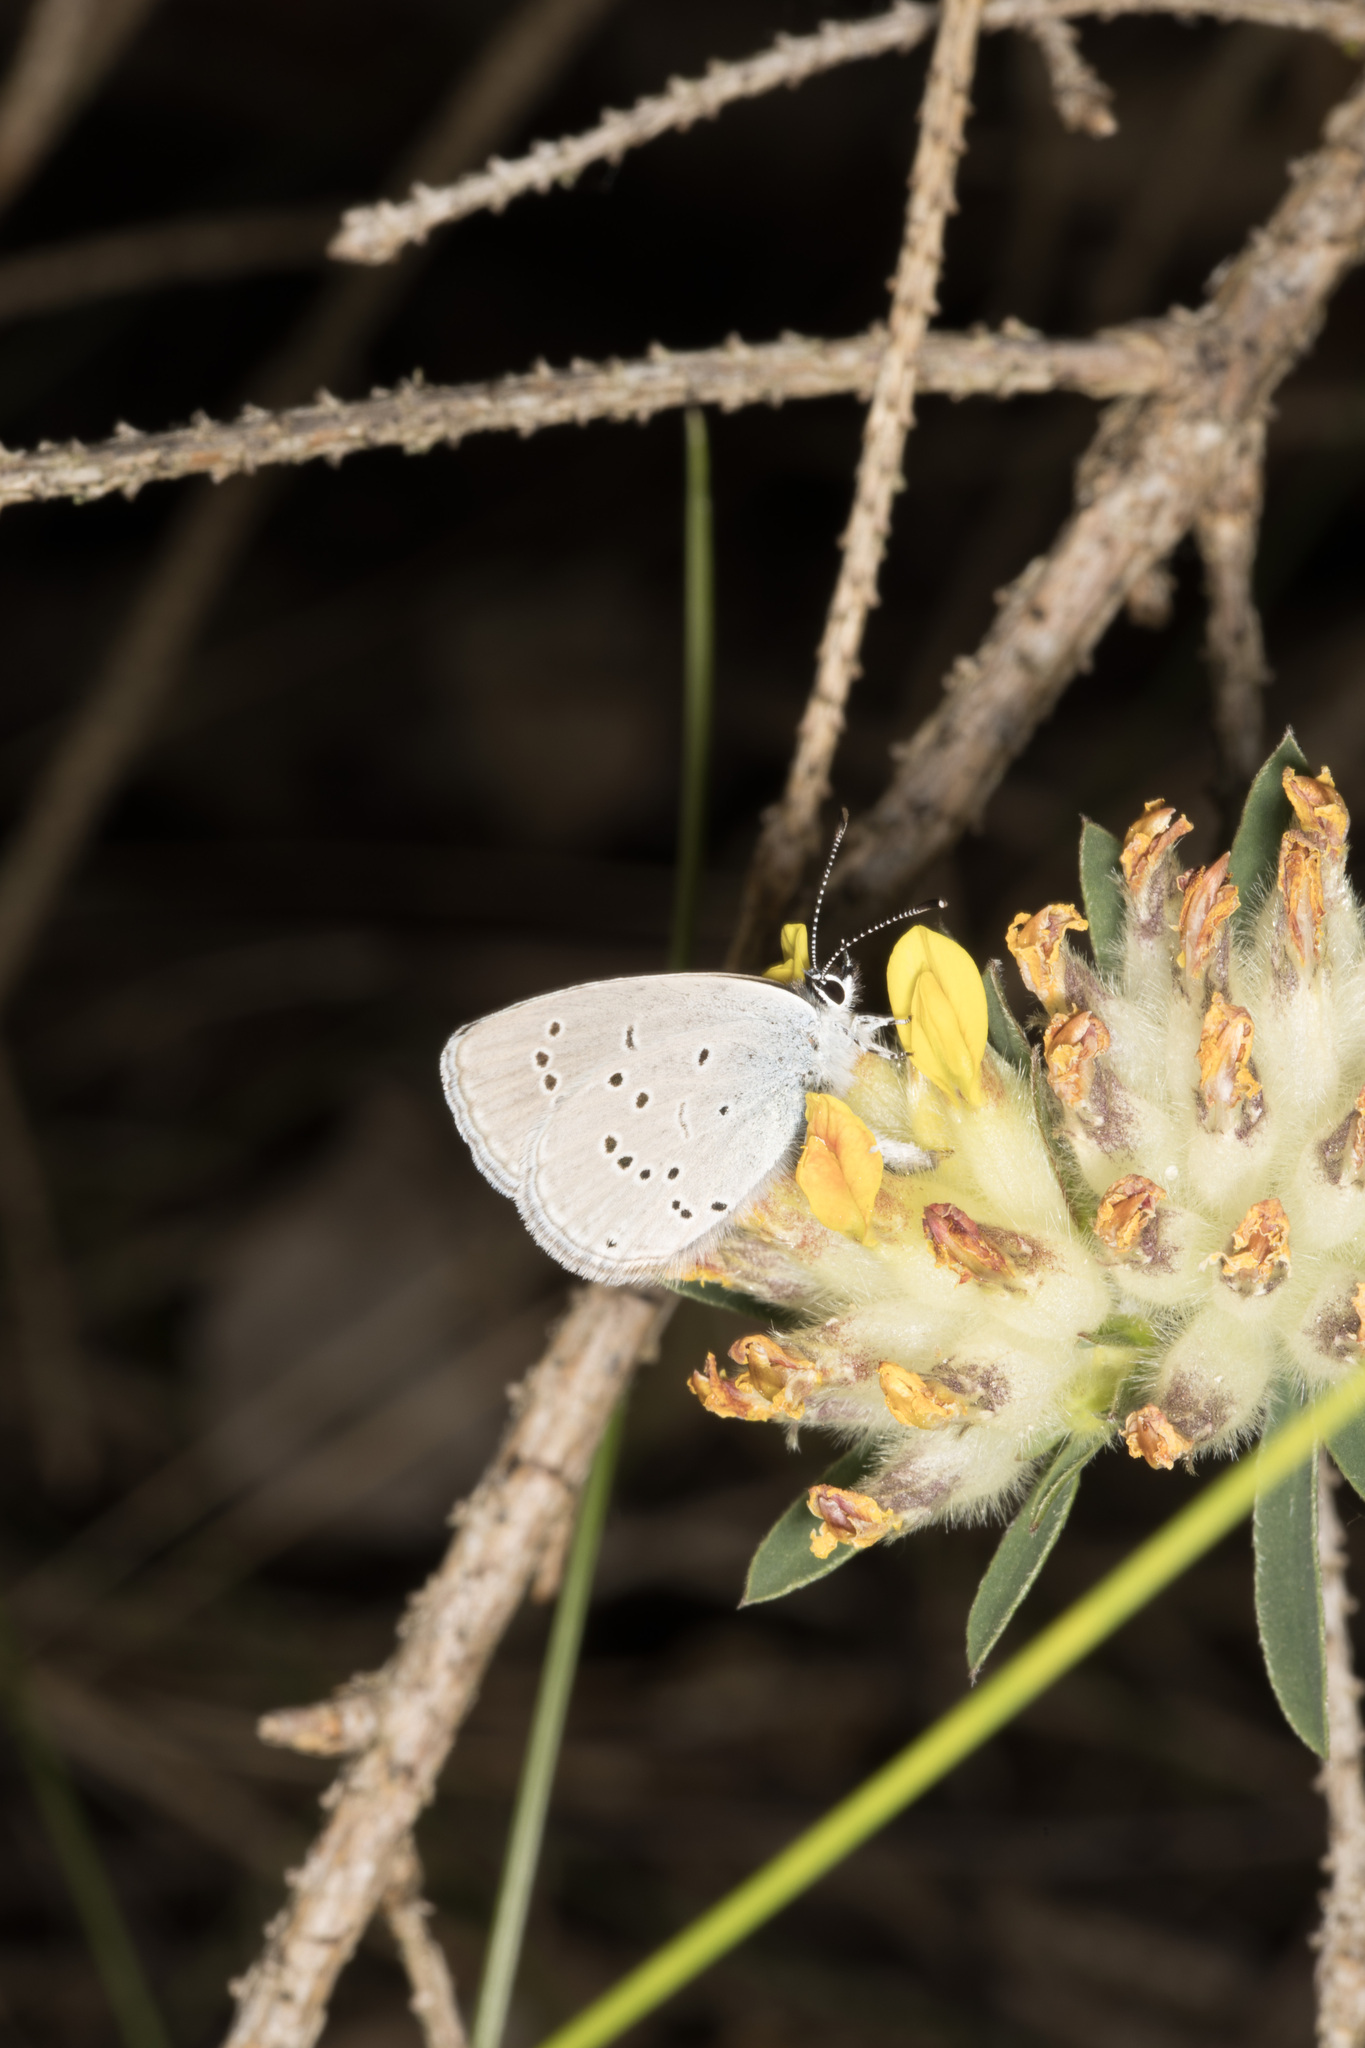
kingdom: Animalia
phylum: Arthropoda
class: Insecta
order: Lepidoptera
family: Lycaenidae
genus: Cupido
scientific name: Cupido minimus
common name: Small blue
